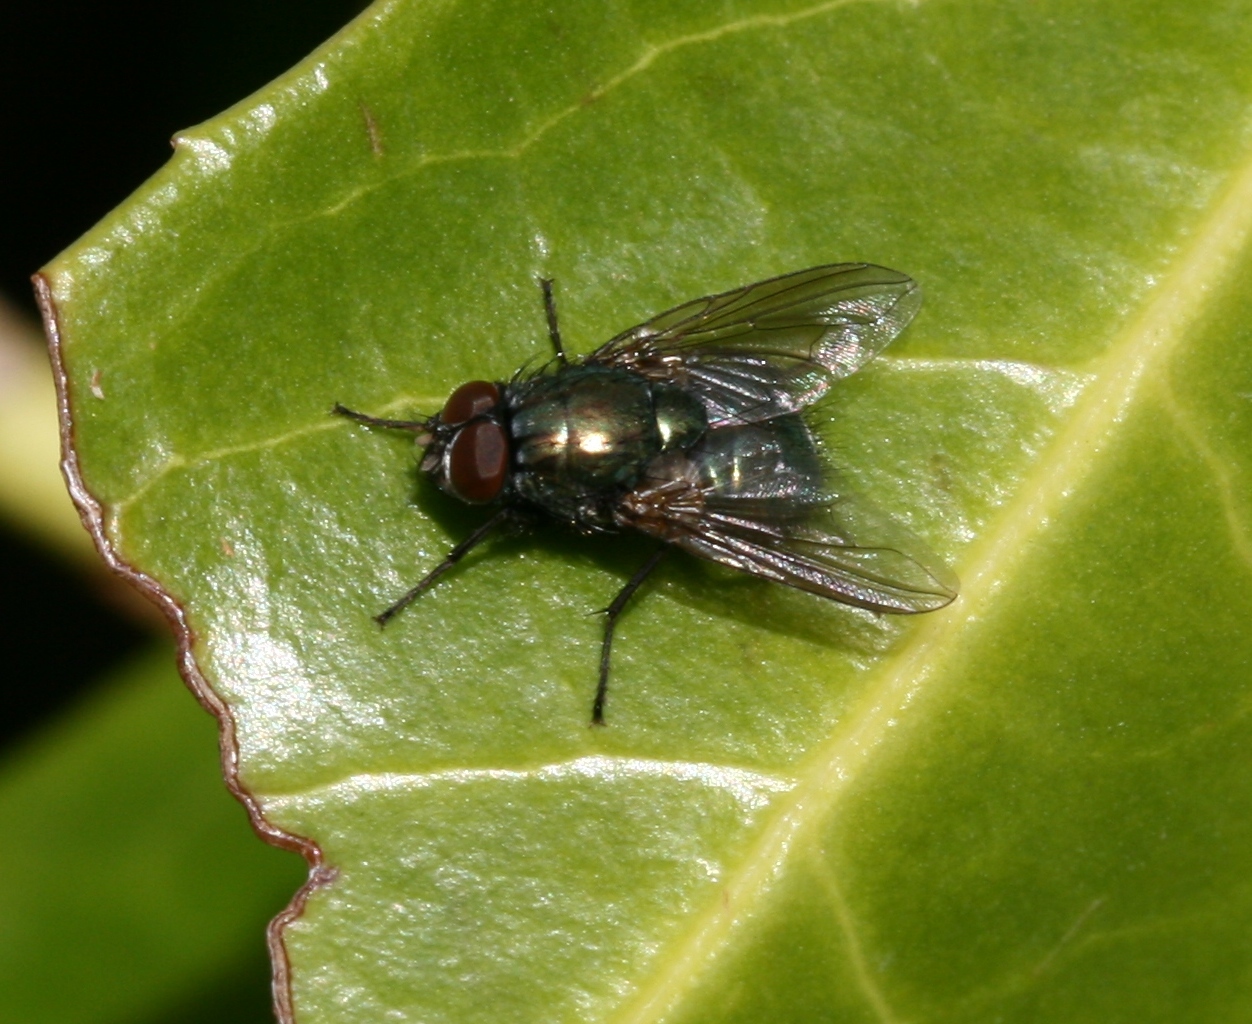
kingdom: Animalia
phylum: Arthropoda
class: Insecta
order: Diptera
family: Muscidae
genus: Dasyphora
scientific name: Dasyphora cyanella
